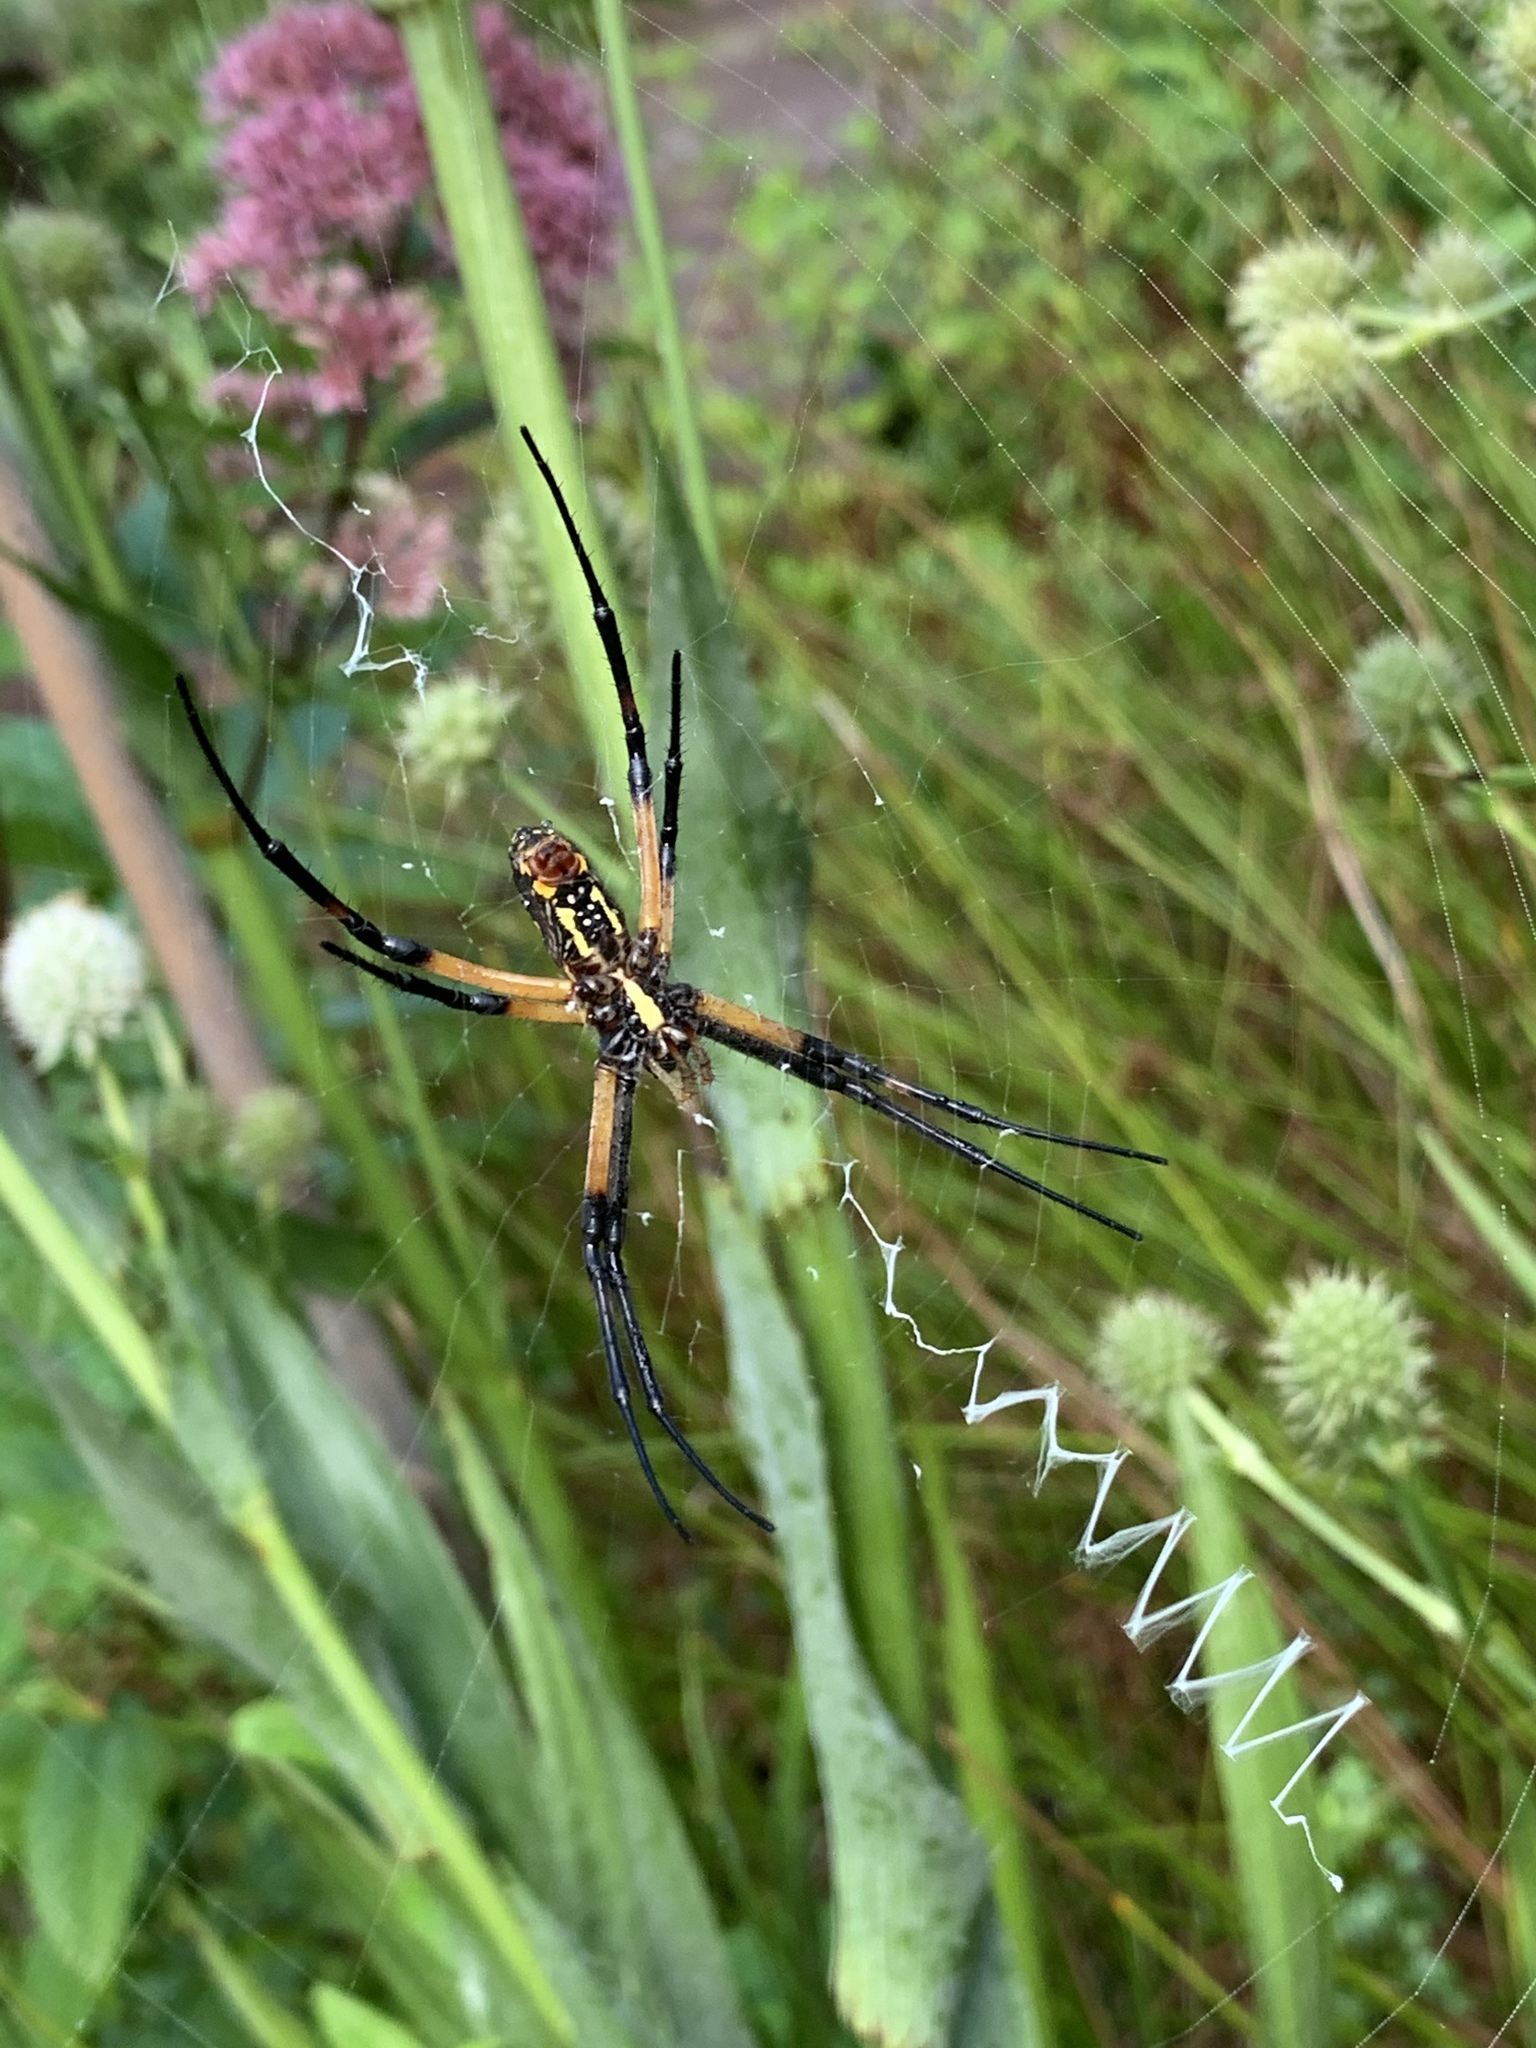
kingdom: Animalia
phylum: Arthropoda
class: Arachnida
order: Araneae
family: Araneidae
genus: Argiope
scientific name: Argiope aurantia
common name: Orb weavers
